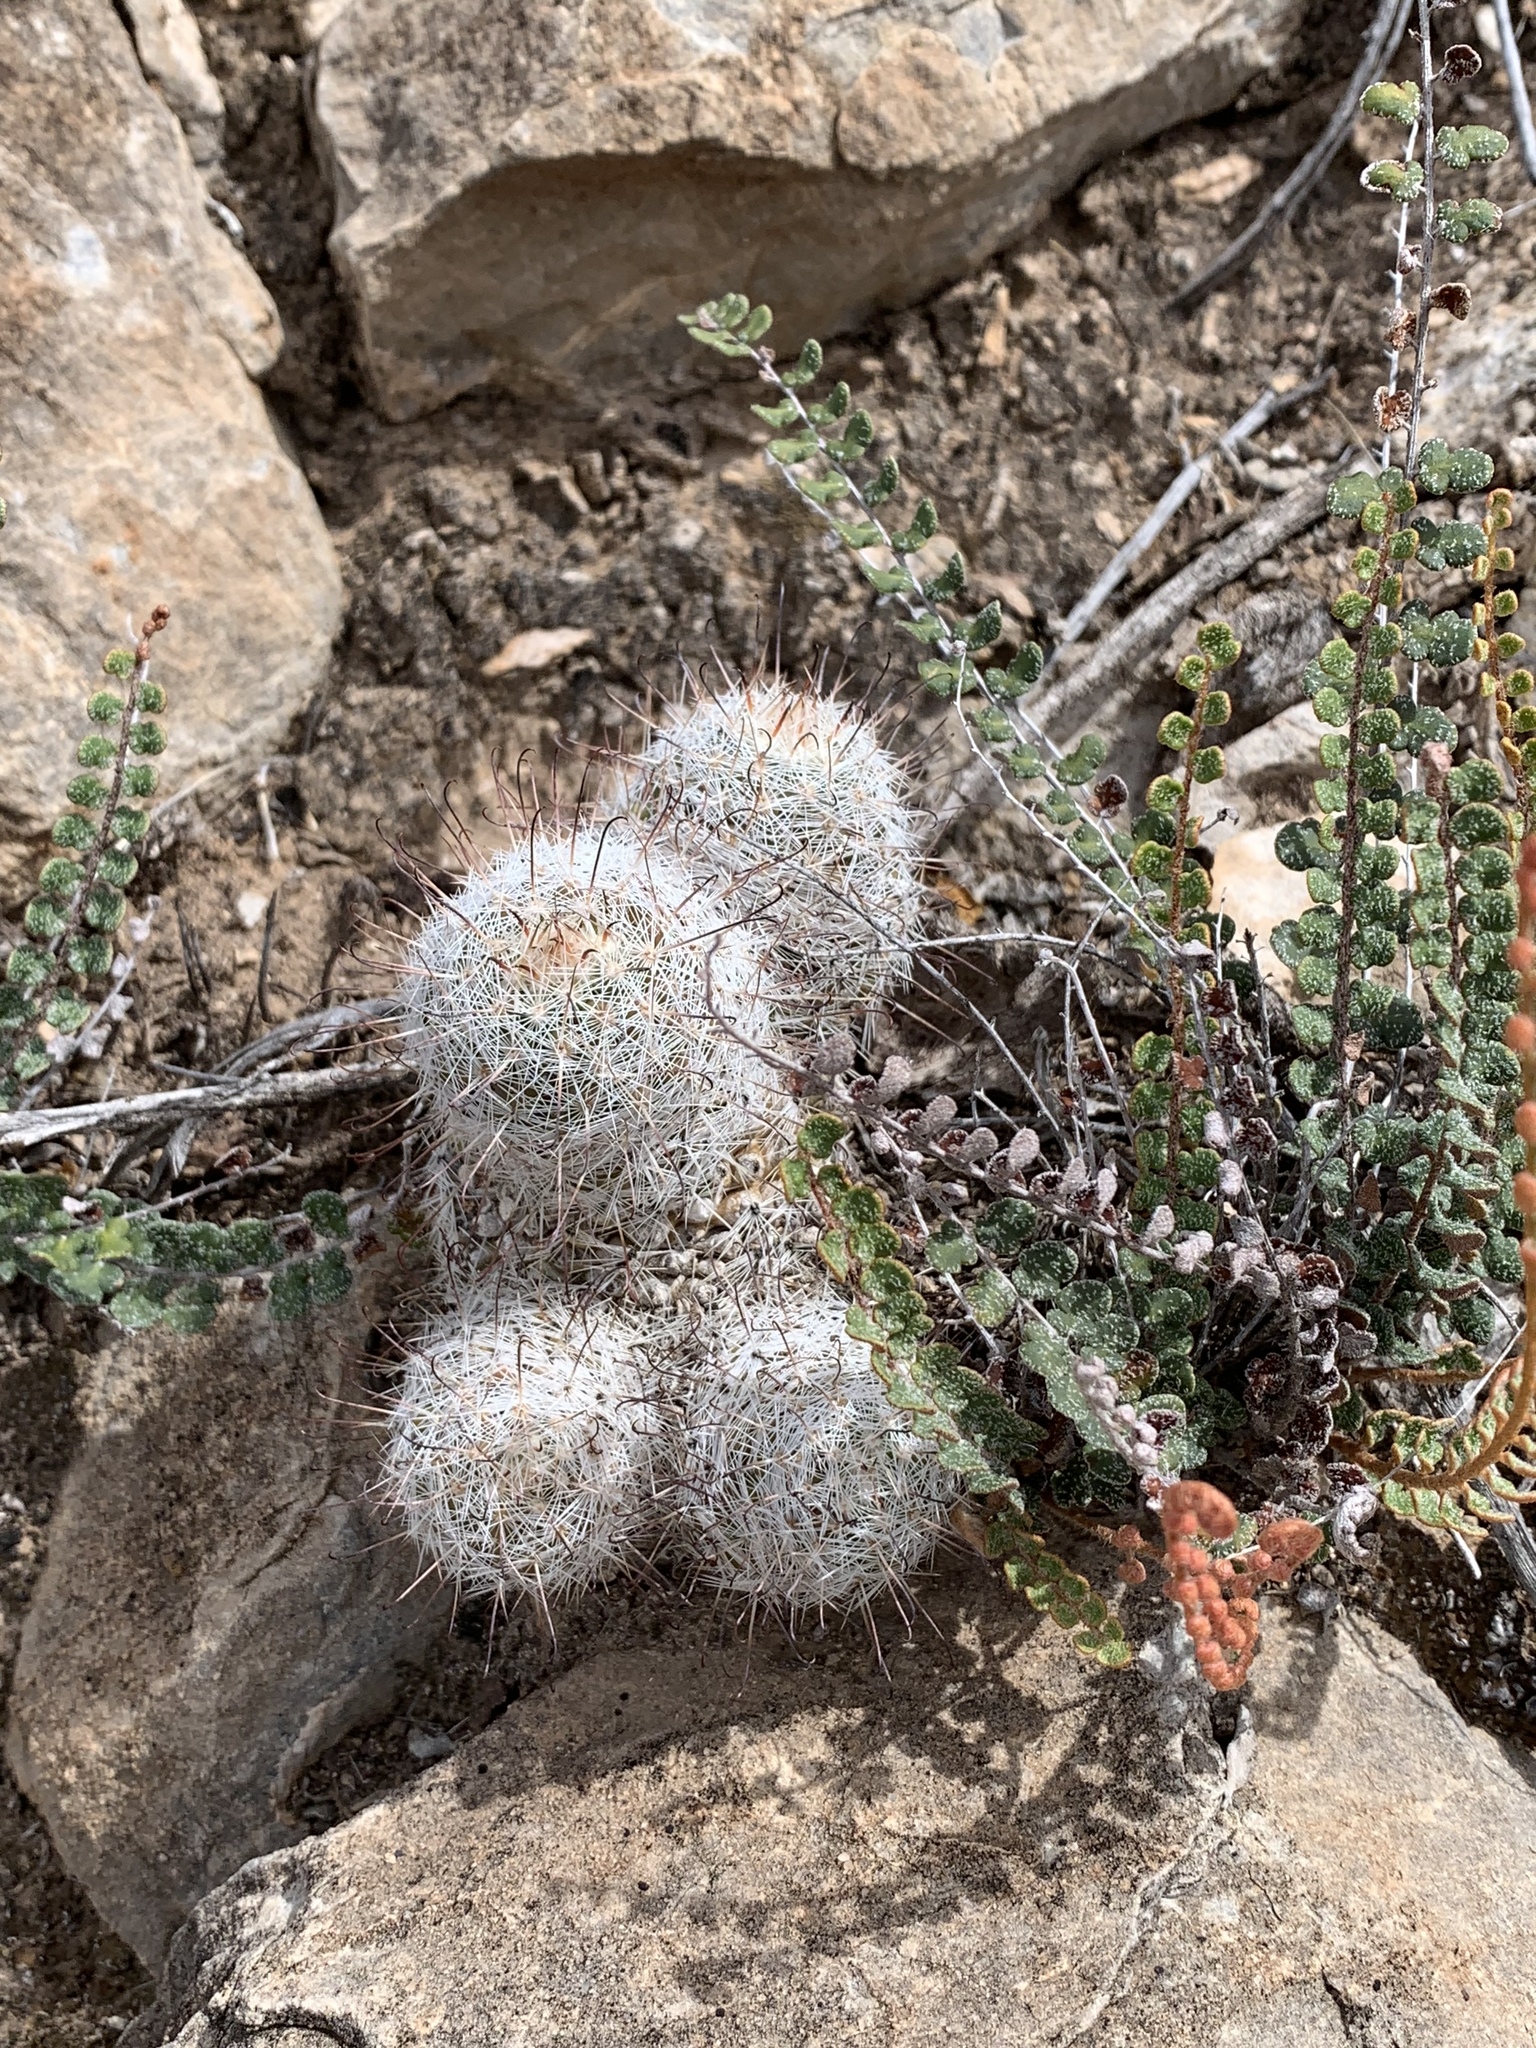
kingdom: Plantae
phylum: Tracheophyta
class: Magnoliopsida
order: Caryophyllales
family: Cactaceae
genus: Cochemiea
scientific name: Cochemiea grahamii
